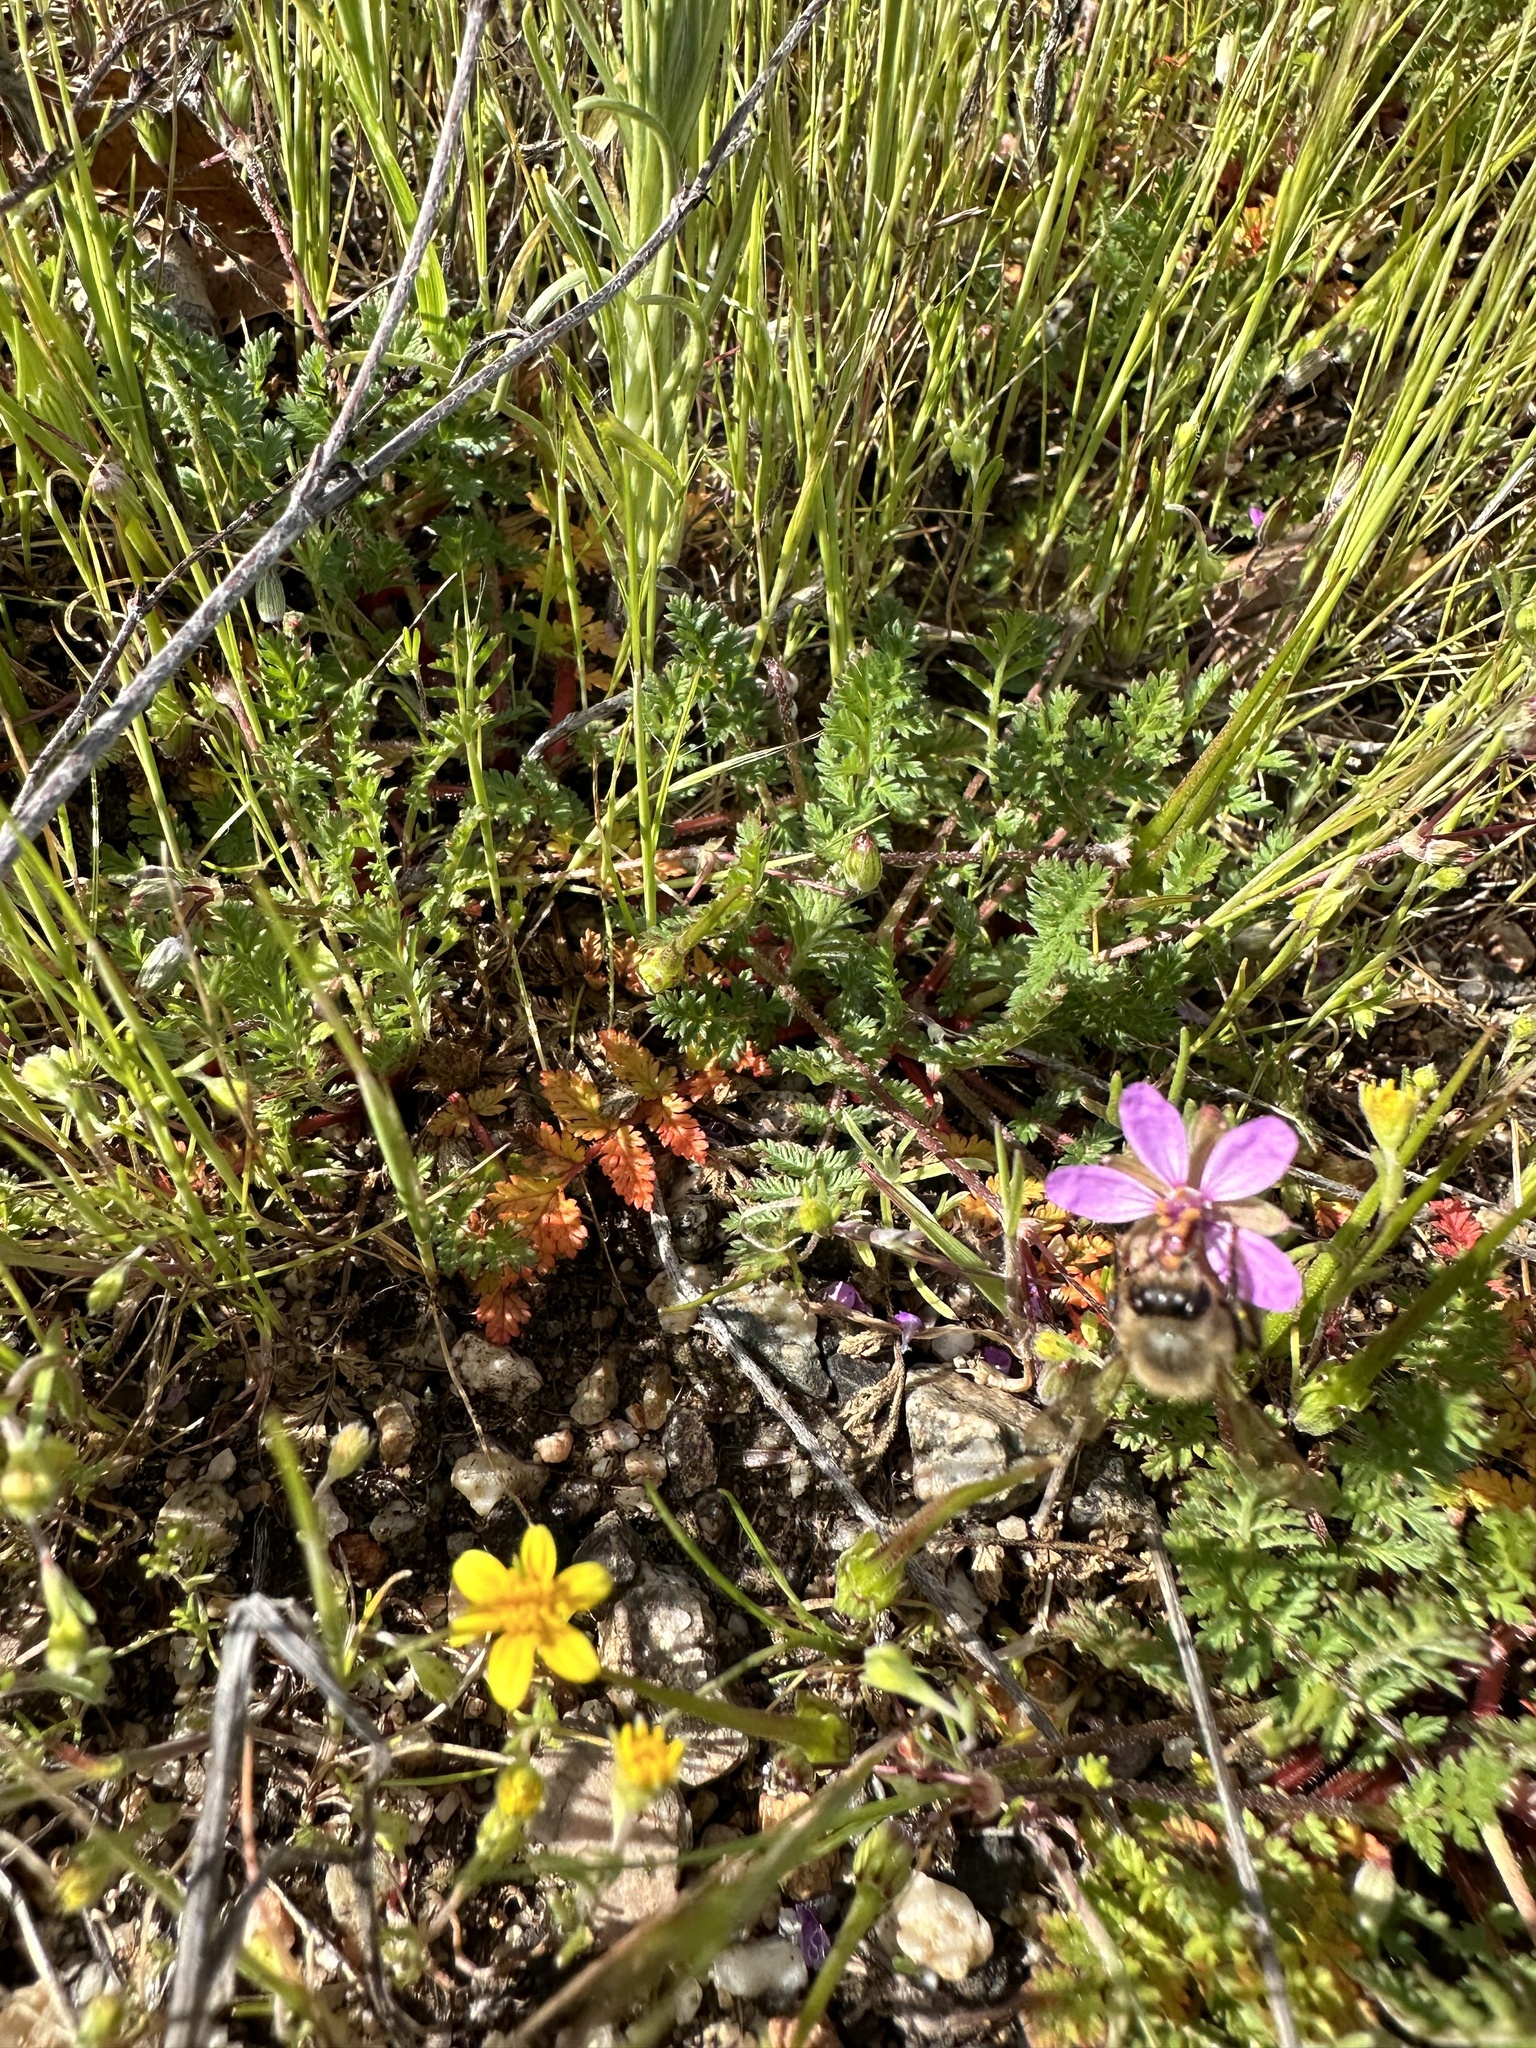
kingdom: Plantae
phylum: Tracheophyta
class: Magnoliopsida
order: Asterales
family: Asteraceae
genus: Lasthenia
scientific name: Lasthenia californica
